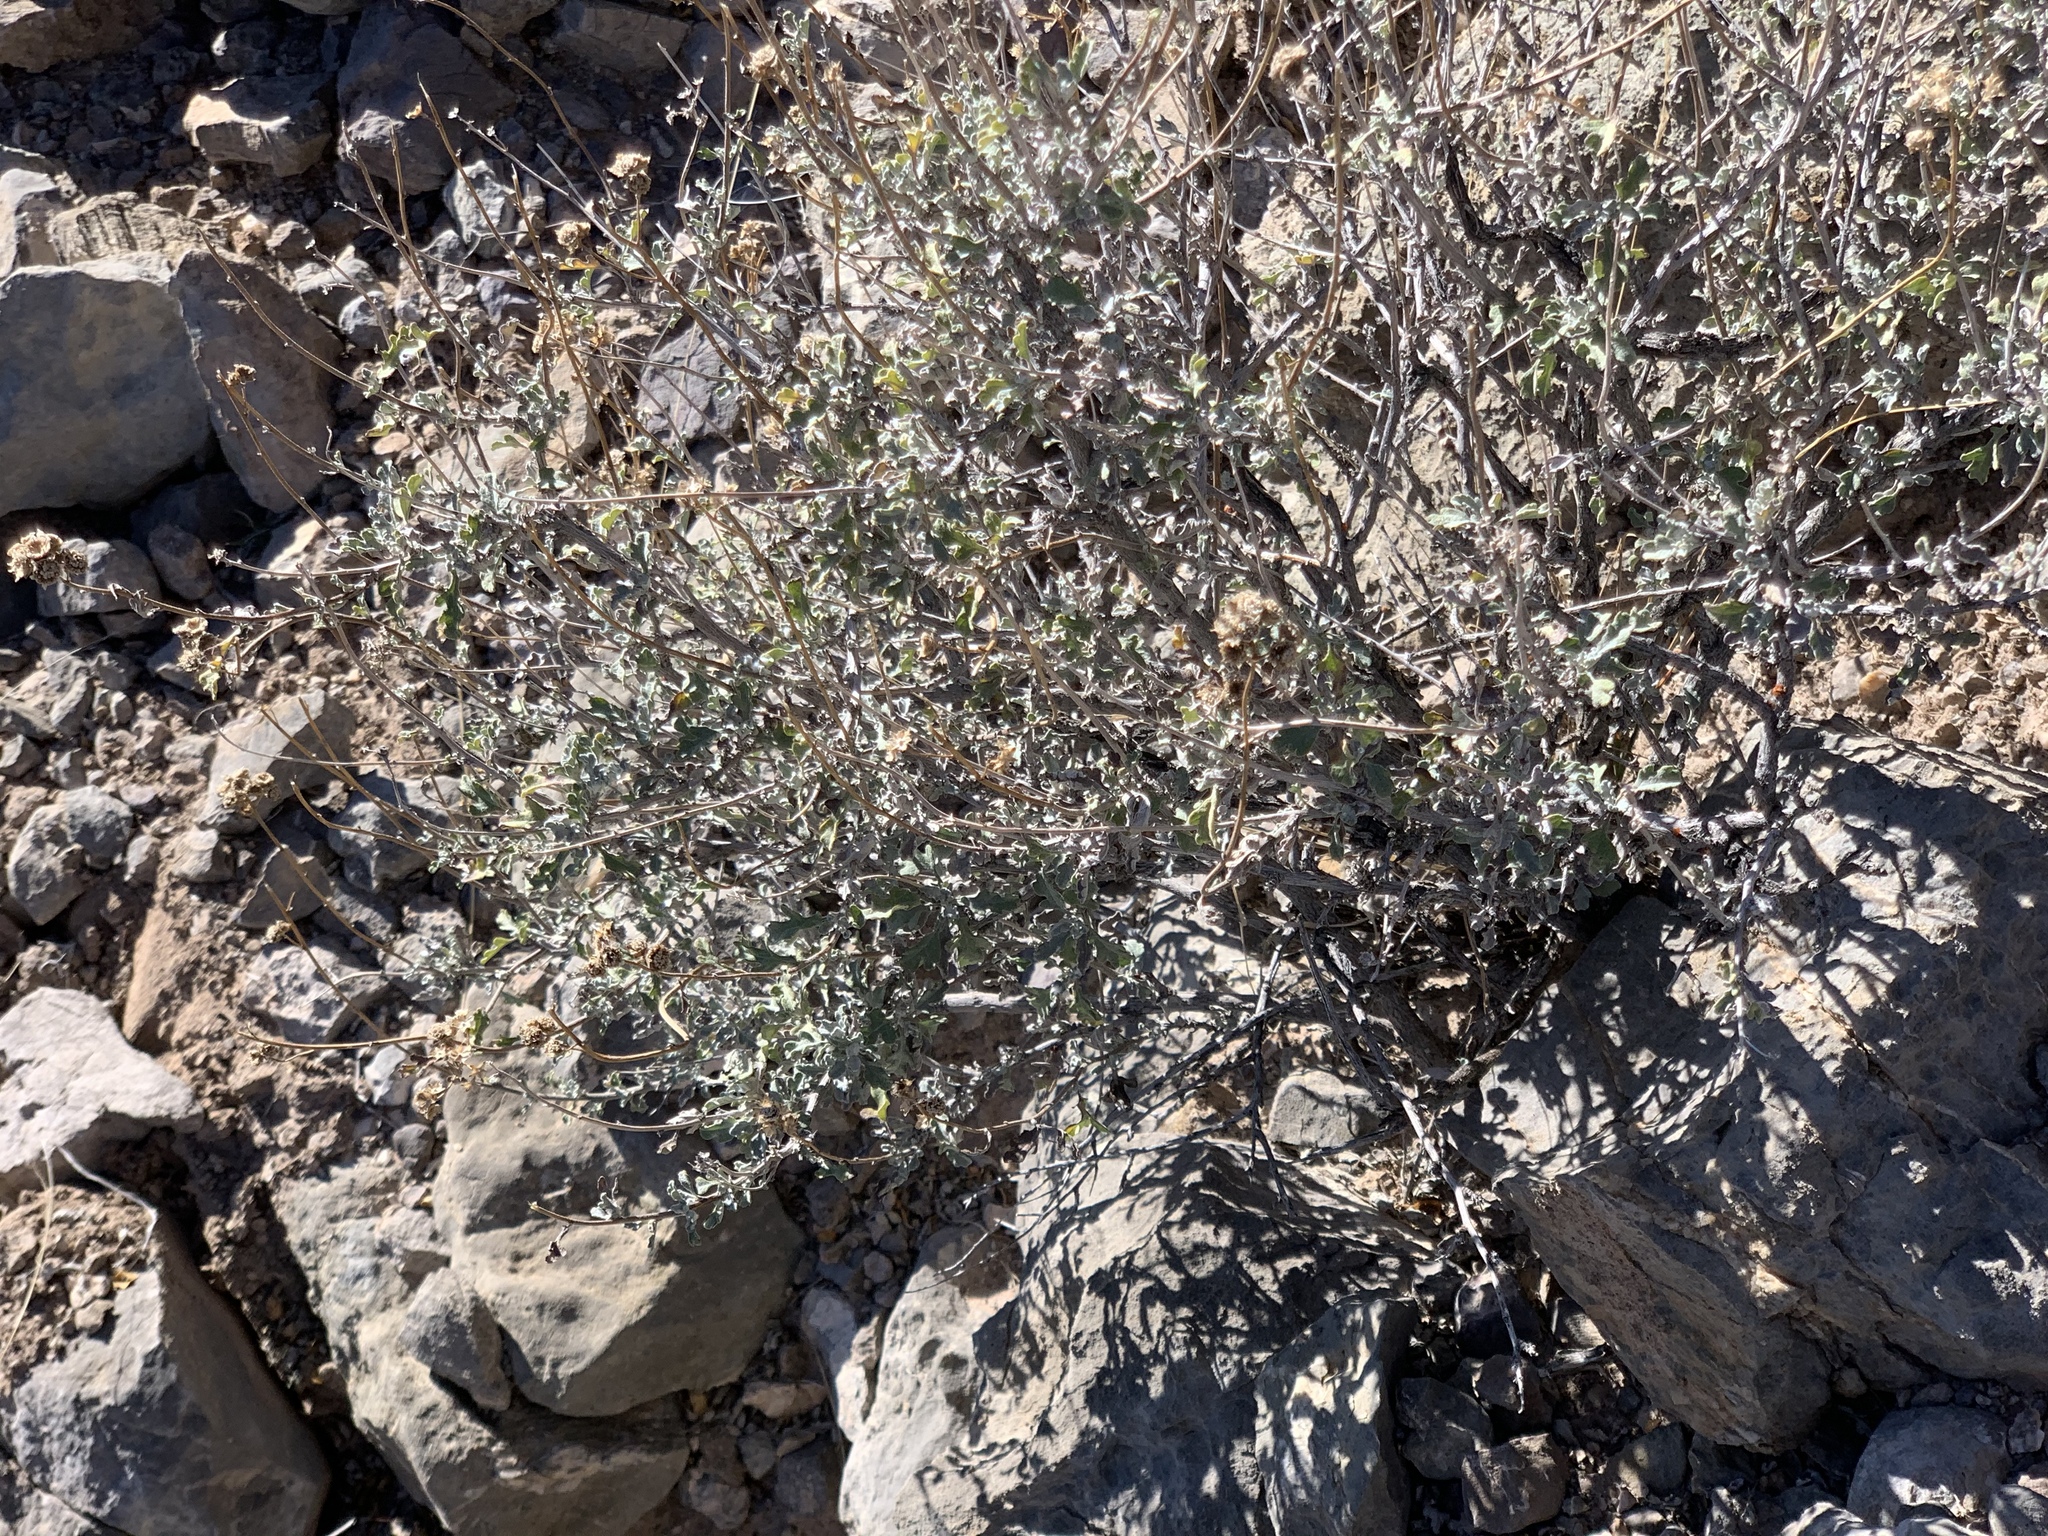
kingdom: Plantae
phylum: Tracheophyta
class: Magnoliopsida
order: Asterales
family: Asteraceae
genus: Parthenium
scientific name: Parthenium incanum
